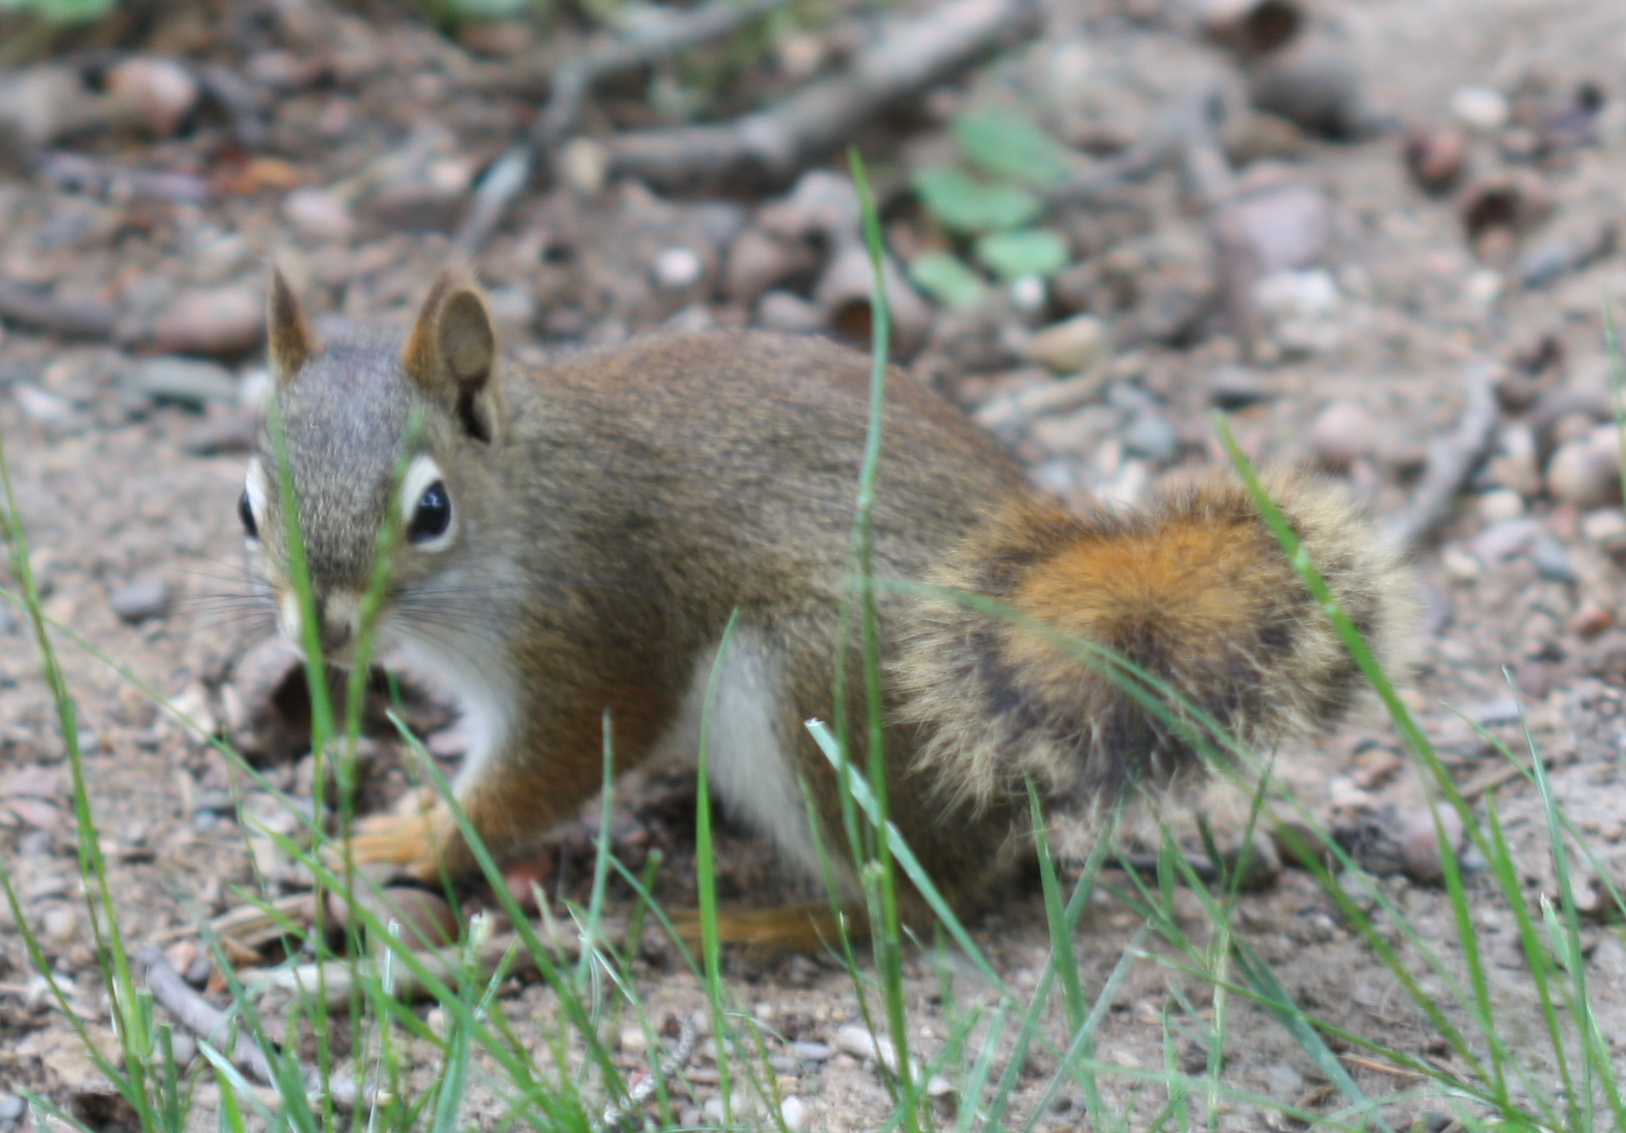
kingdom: Animalia
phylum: Chordata
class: Mammalia
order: Rodentia
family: Sciuridae
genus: Tamiasciurus
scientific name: Tamiasciurus hudsonicus
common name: Red squirrel
